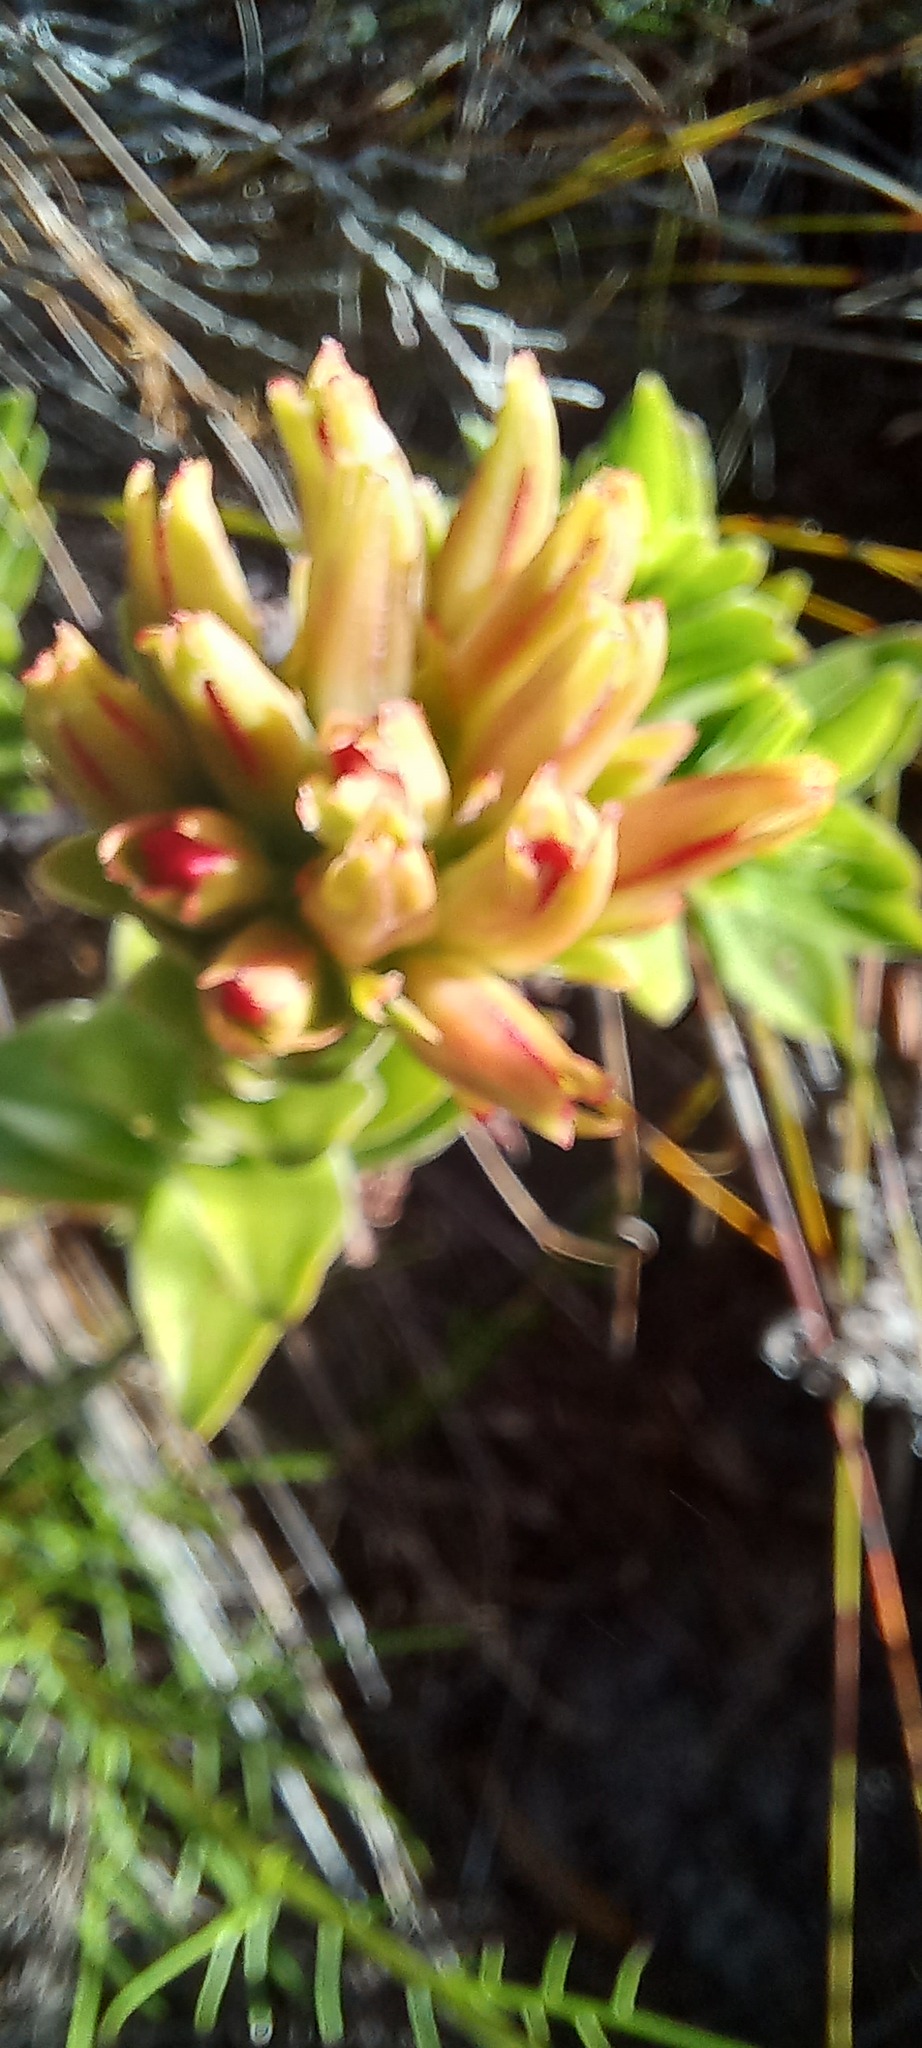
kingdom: Plantae
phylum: Tracheophyta
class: Magnoliopsida
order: Saxifragales
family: Crassulaceae
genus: Crassula
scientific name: Crassula coccinea
